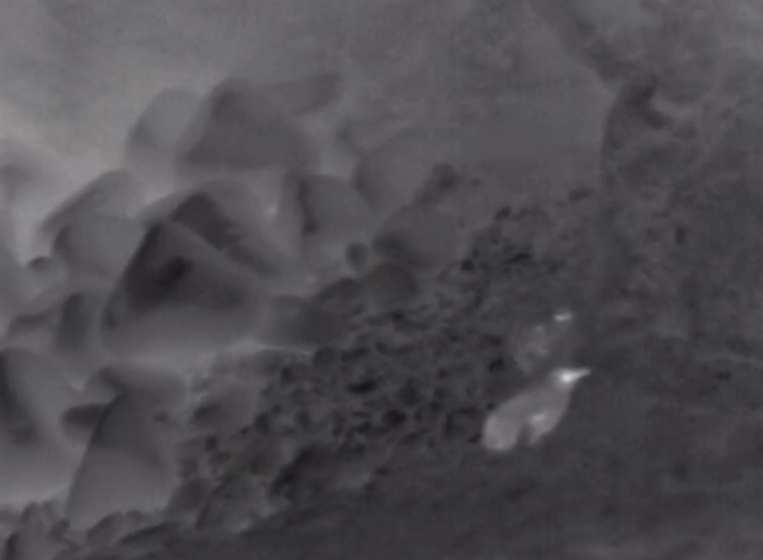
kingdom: Animalia
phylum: Chordata
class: Aves
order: Sphenisciformes
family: Spheniscidae
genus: Eudyptula
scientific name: Eudyptula minor
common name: Little penguin
